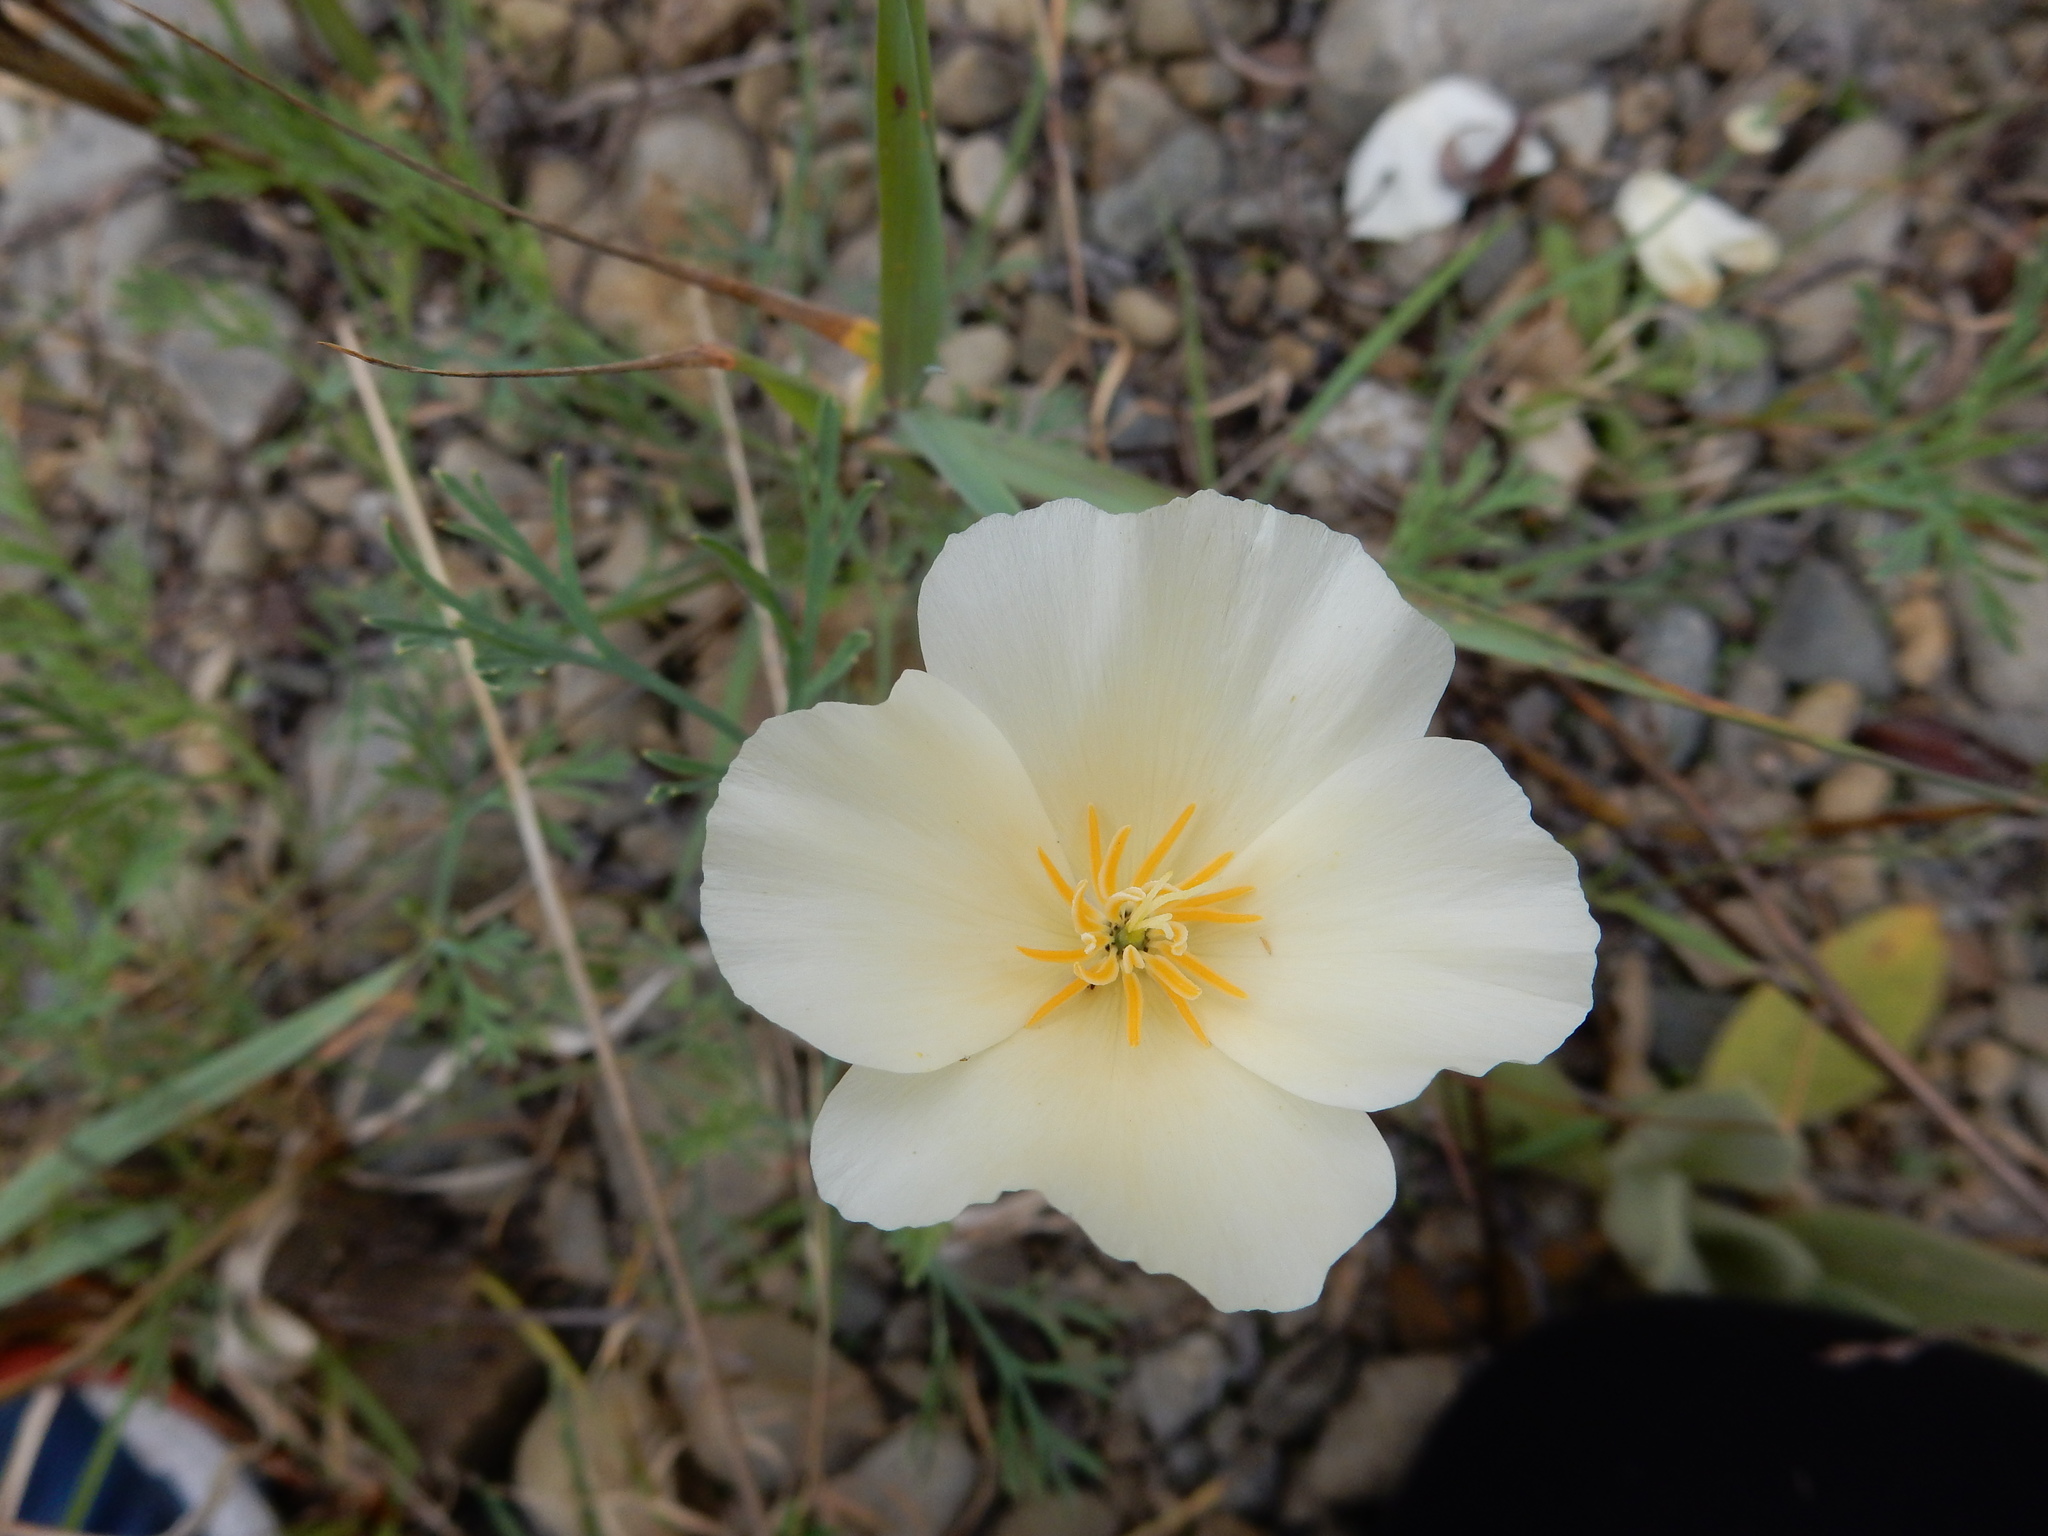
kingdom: Plantae
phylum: Tracheophyta
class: Magnoliopsida
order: Ranunculales
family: Papaveraceae
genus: Eschscholzia
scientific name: Eschscholzia californica
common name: California poppy
